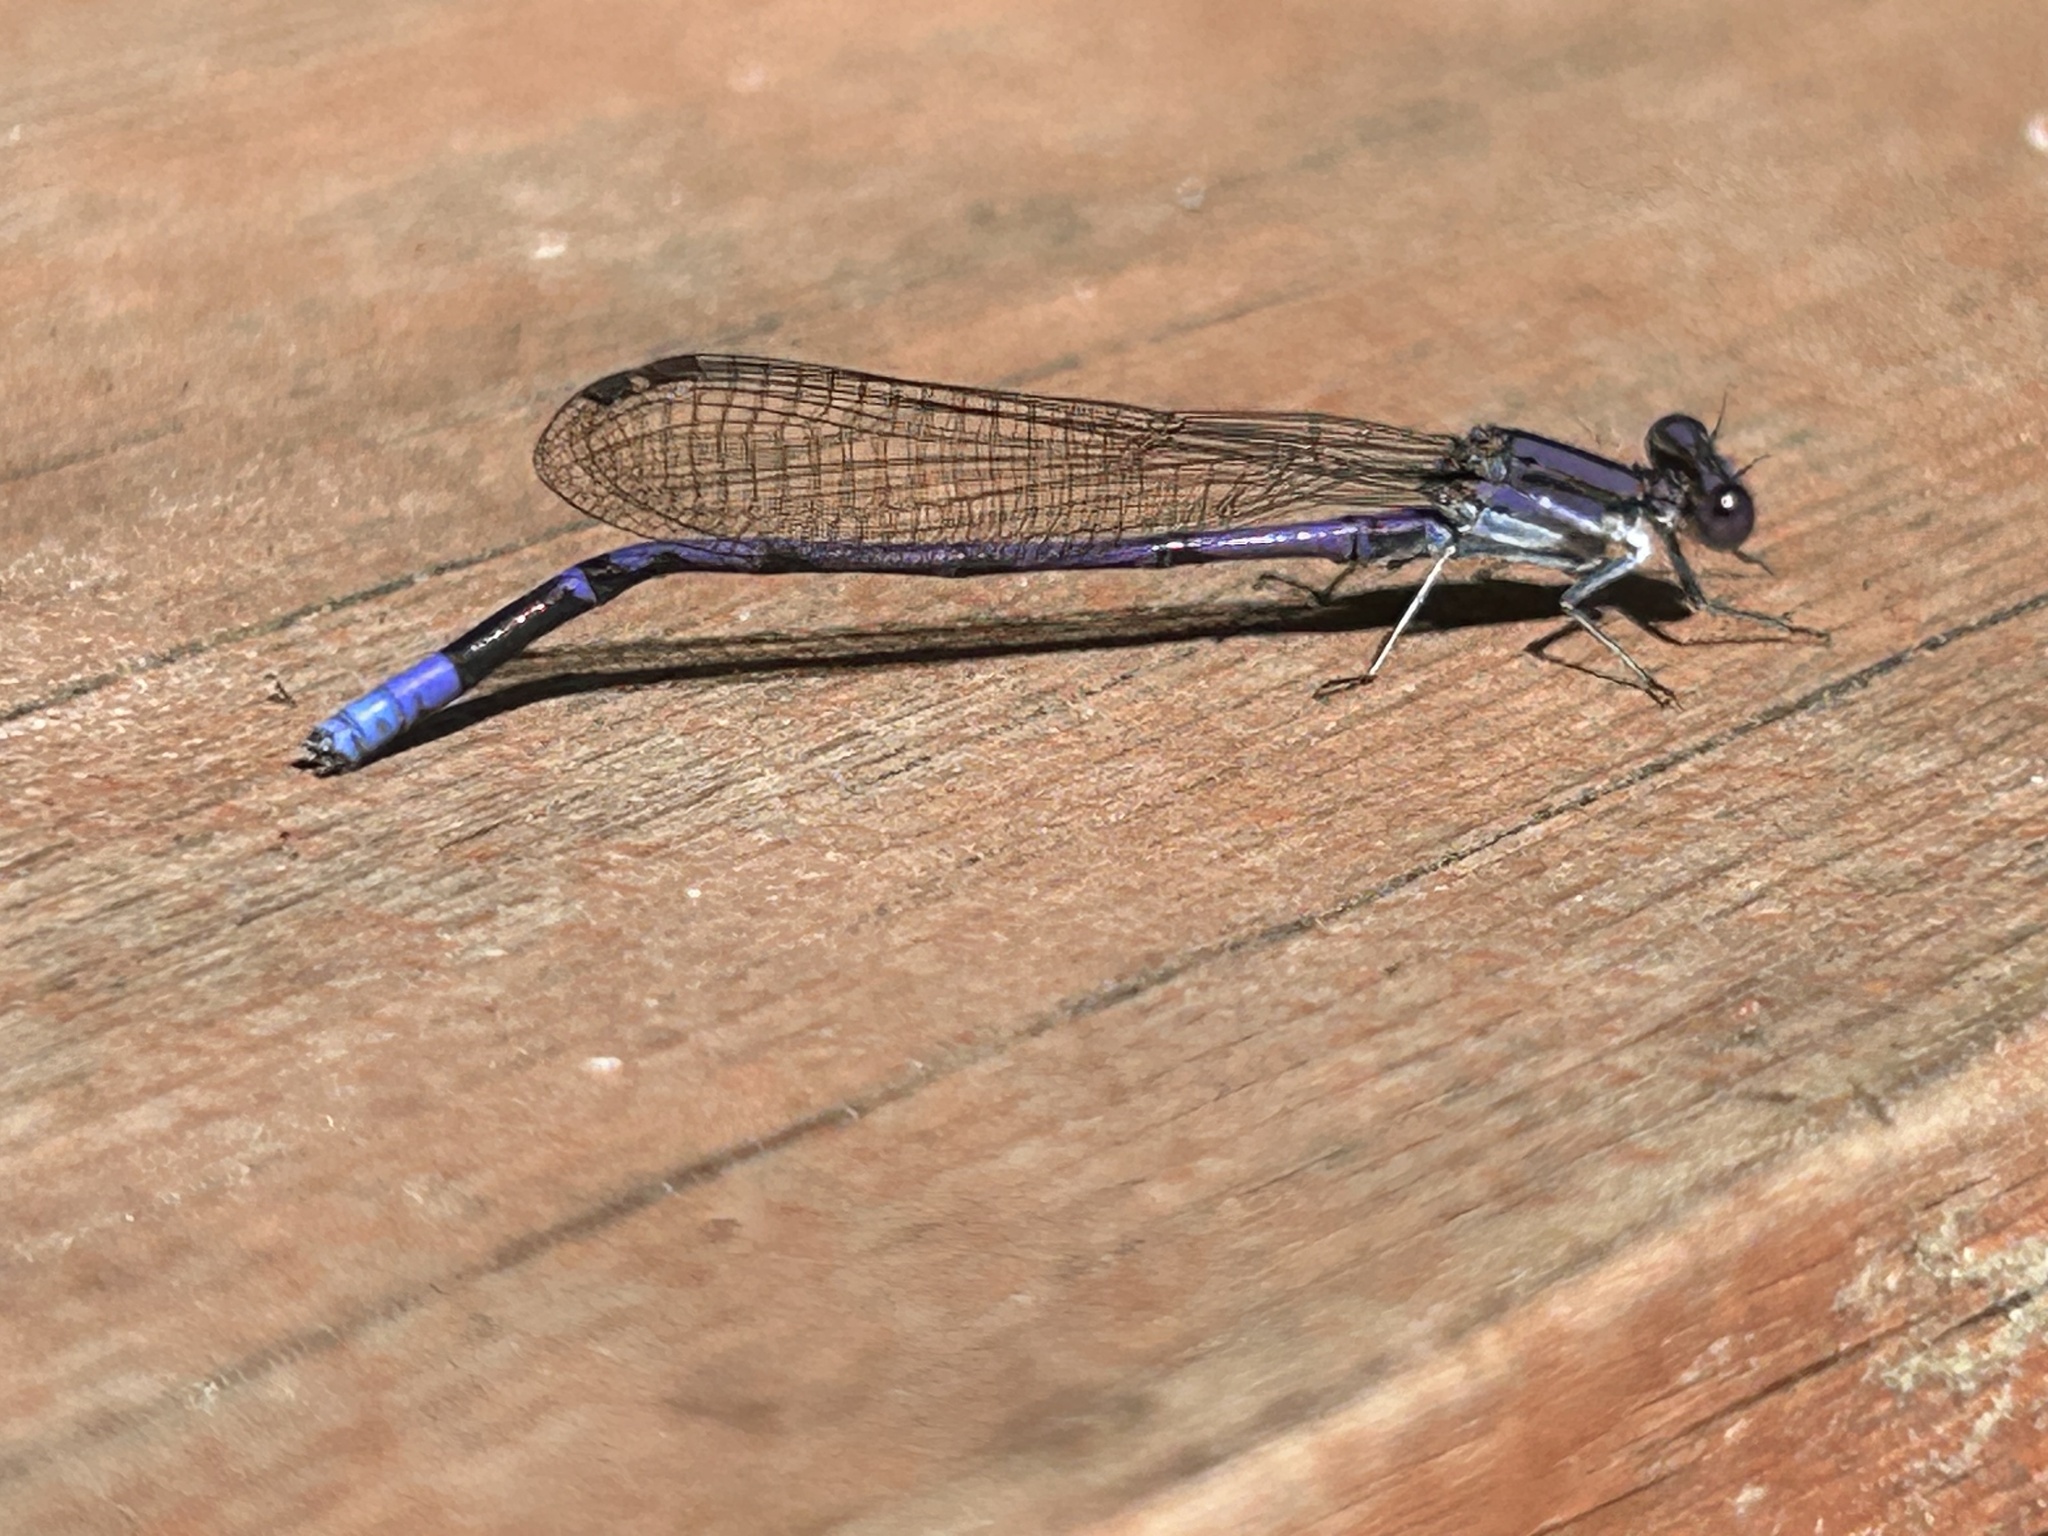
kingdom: Animalia
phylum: Arthropoda
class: Insecta
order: Odonata
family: Coenagrionidae
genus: Argia
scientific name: Argia fumipennis
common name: Variable dancer
